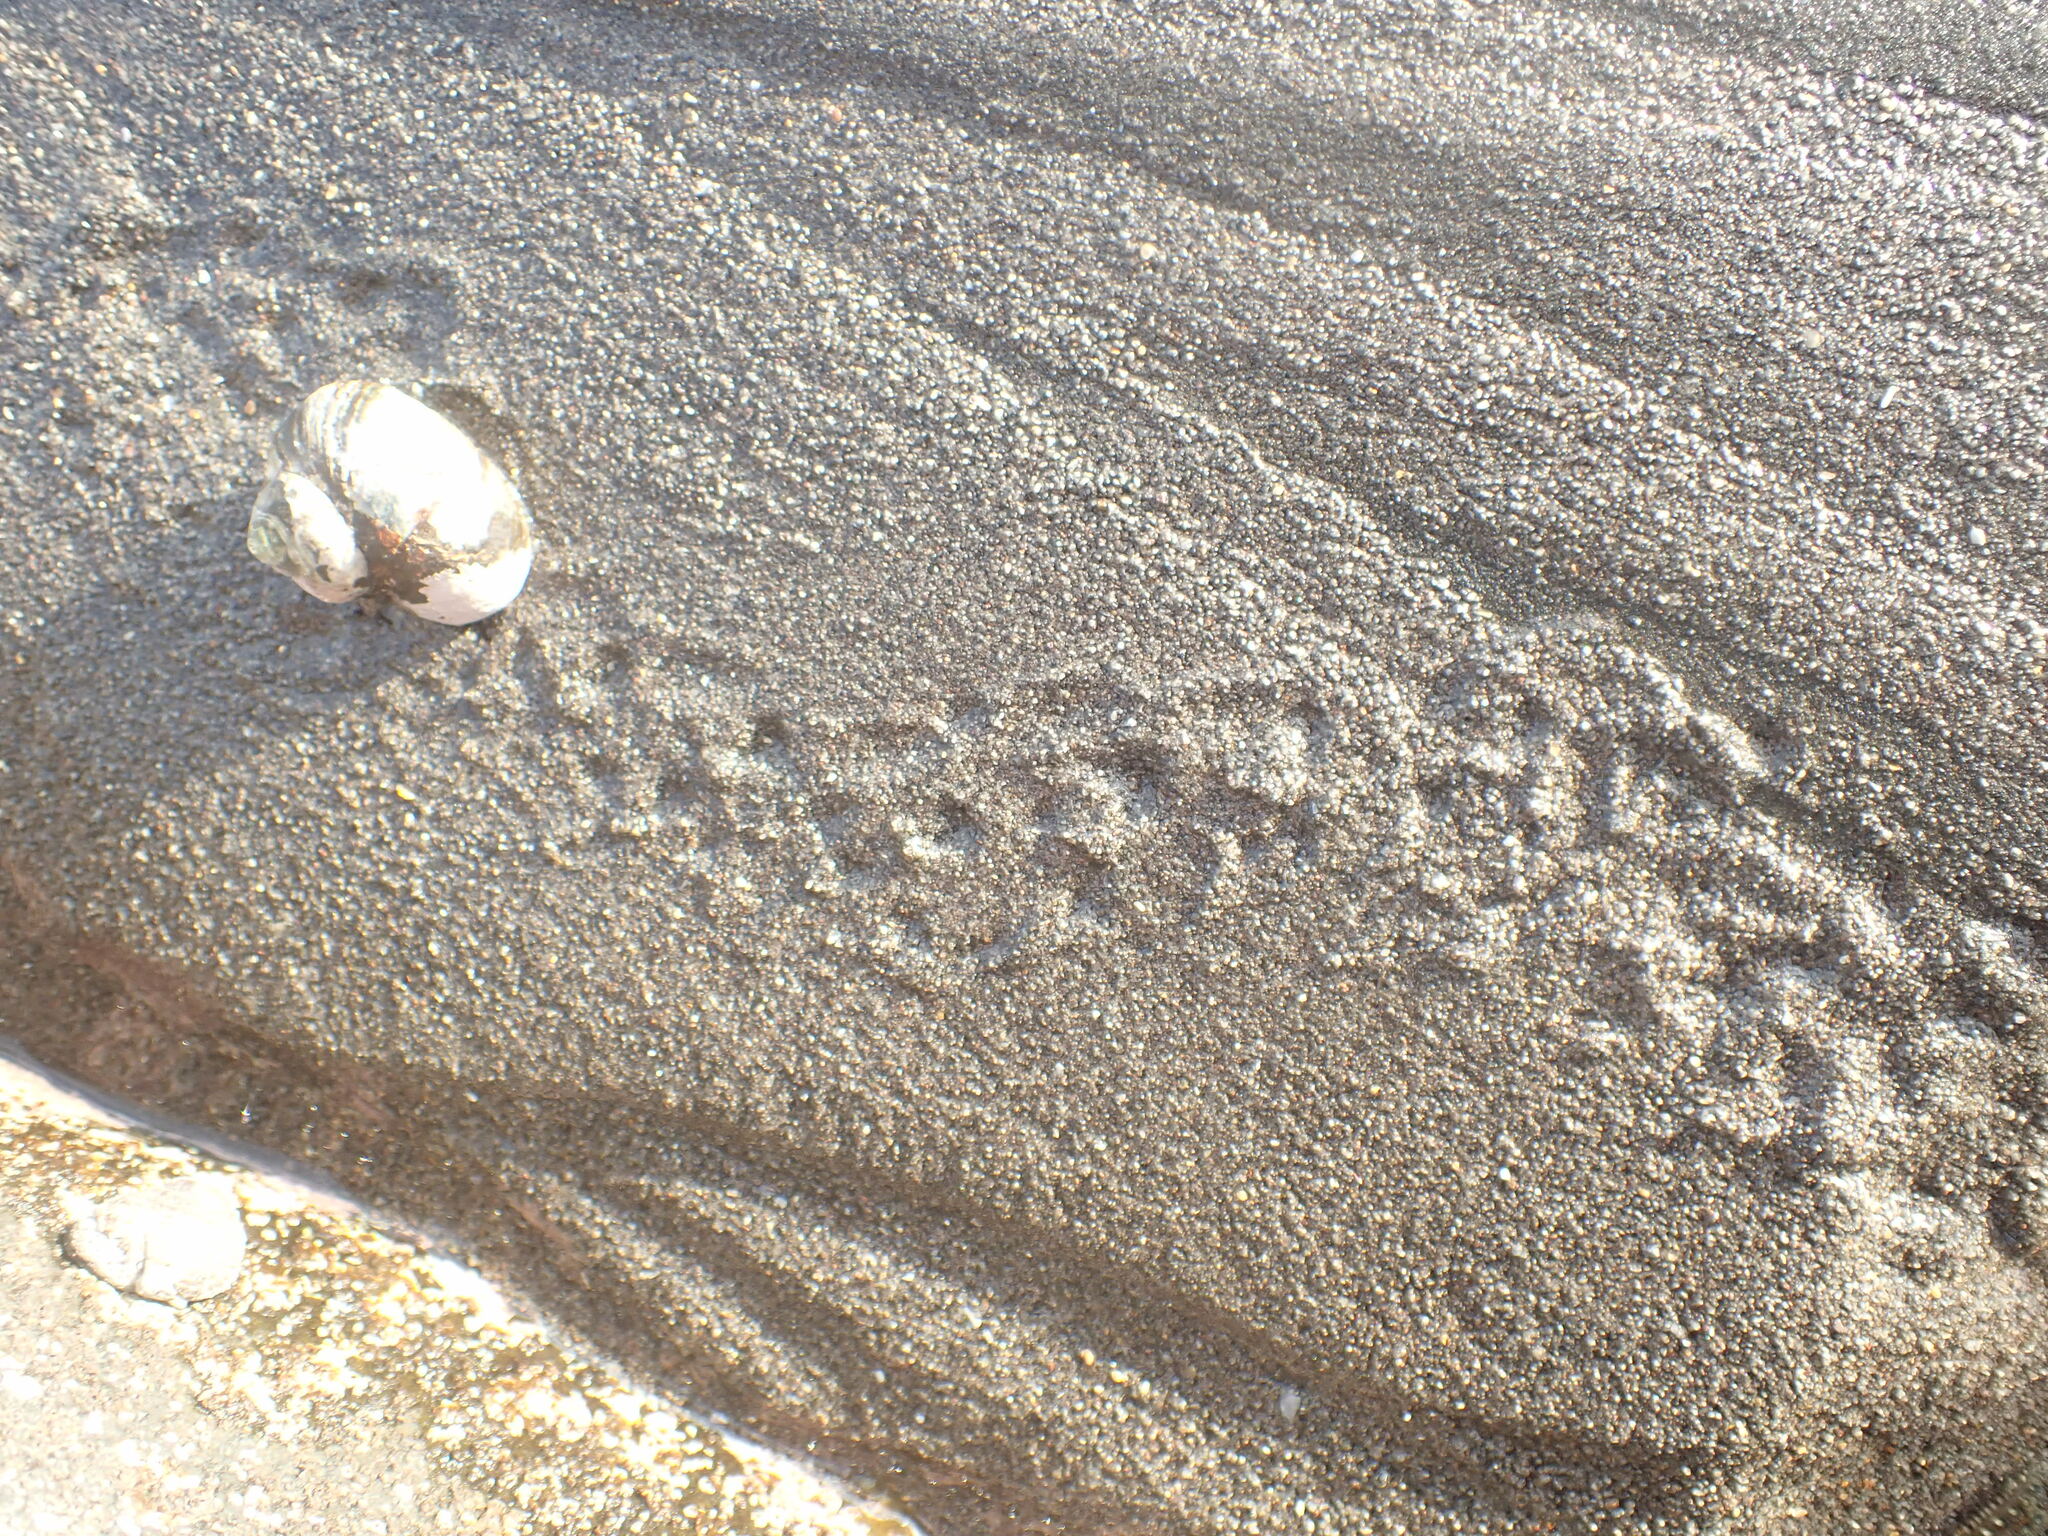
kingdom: Animalia
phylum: Arthropoda
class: Malacostraca
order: Decapoda
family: Paguridae
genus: Pagurus
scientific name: Pagurus novizealandiae
